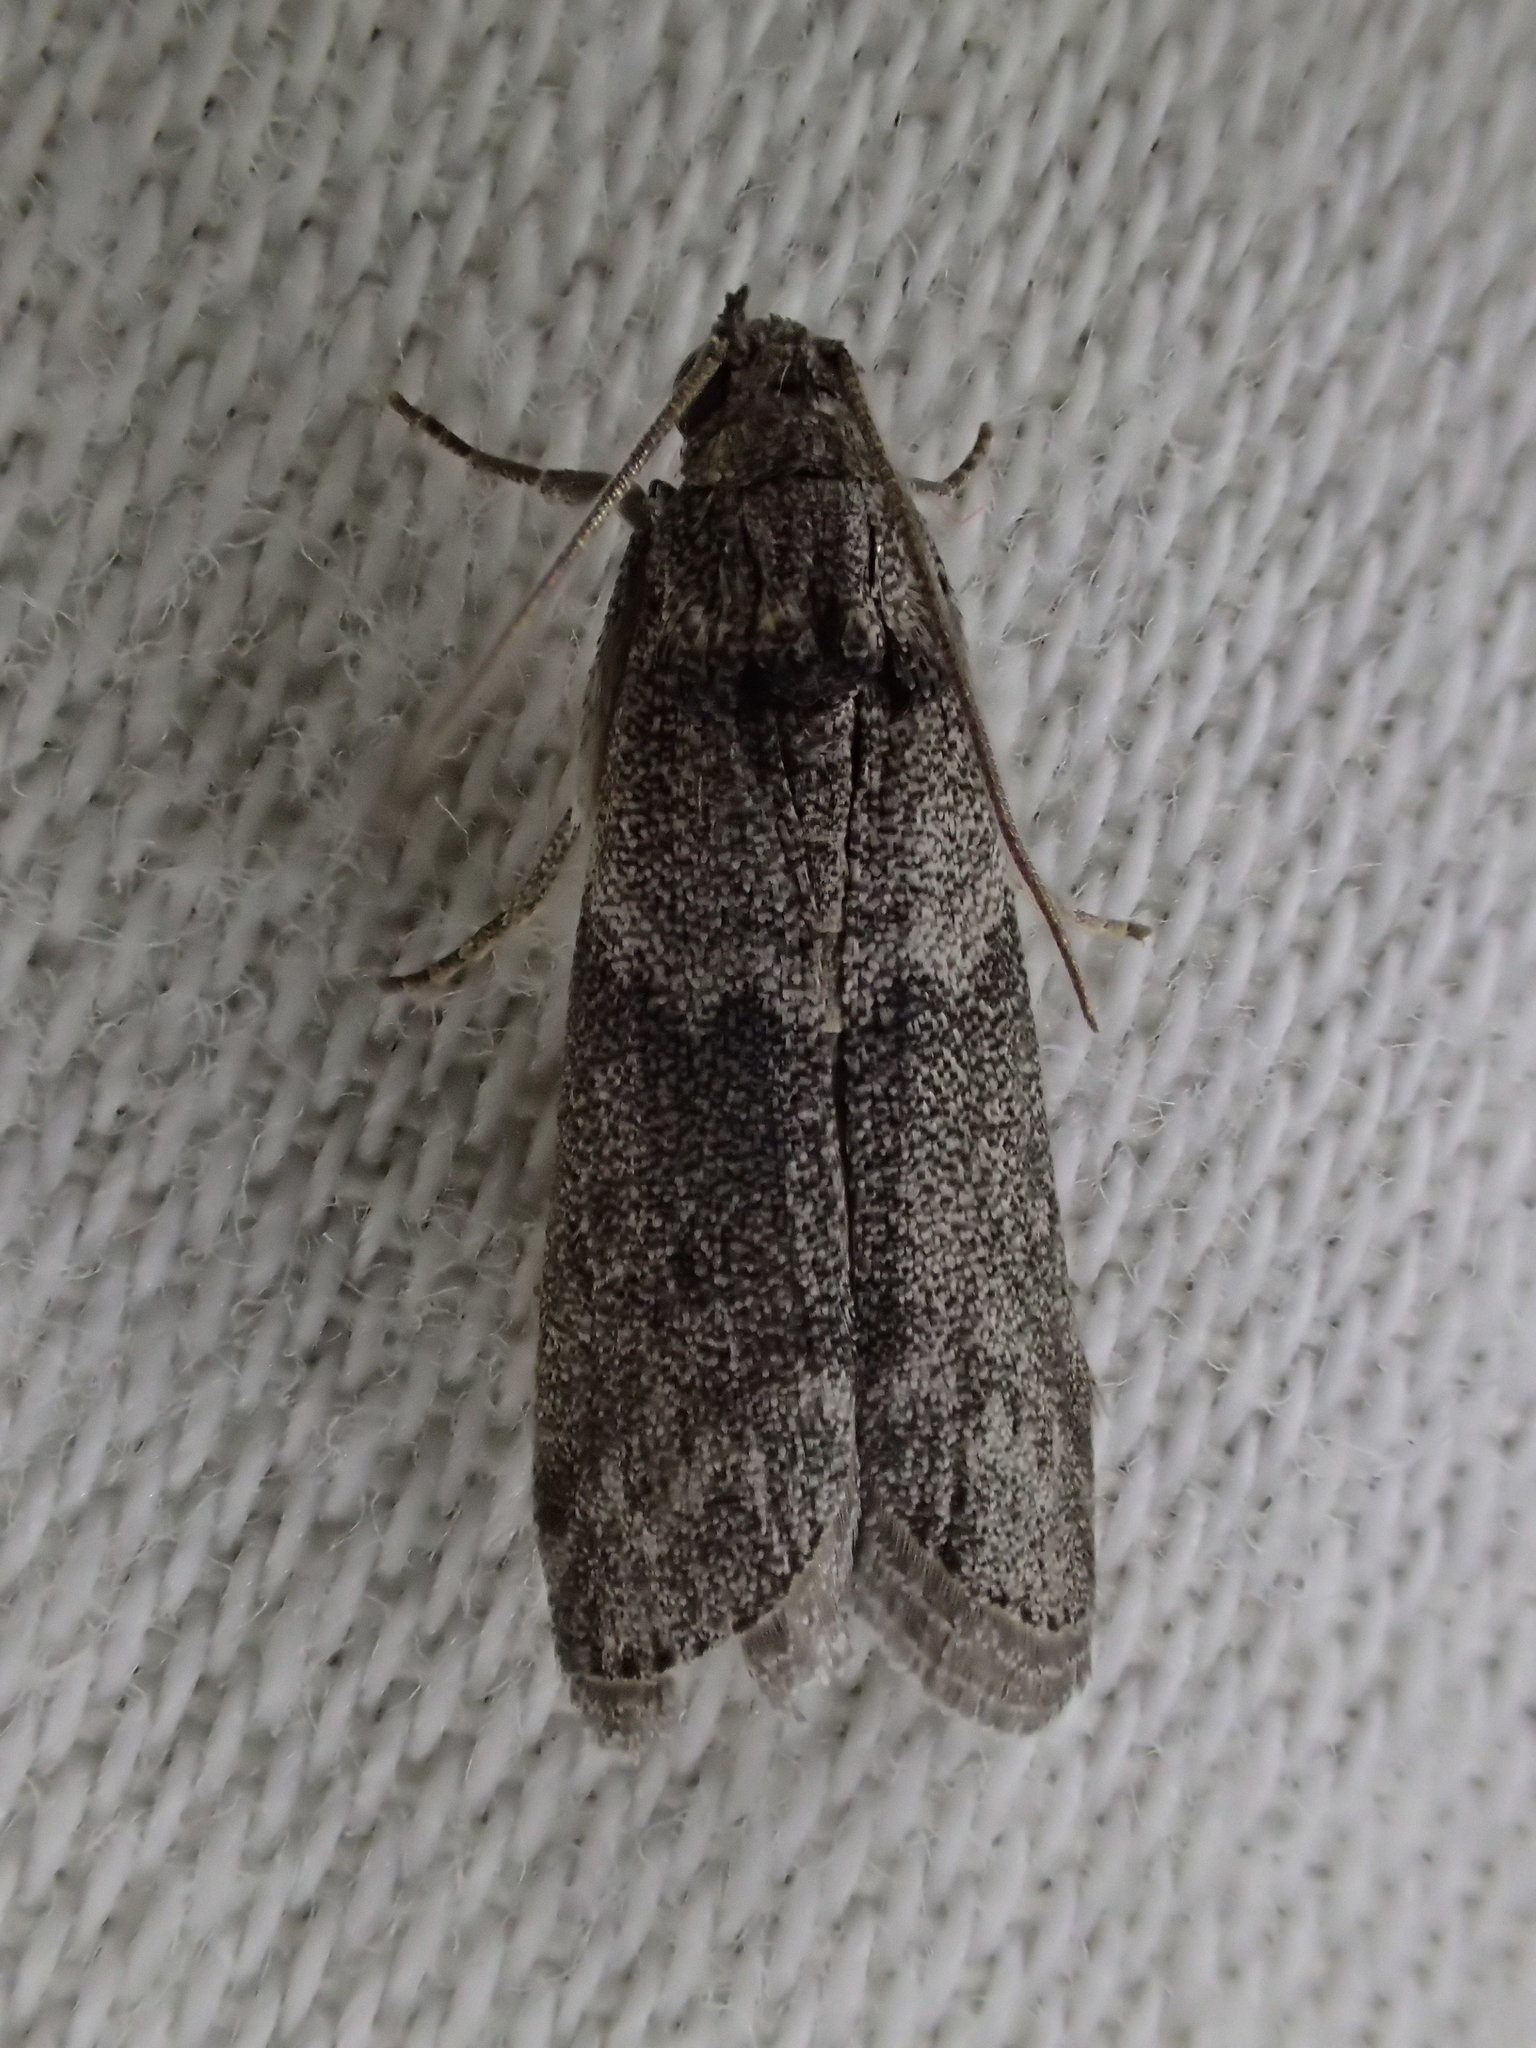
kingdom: Animalia
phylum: Arthropoda
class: Insecta
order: Lepidoptera
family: Pyralidae
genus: Ectomyelois
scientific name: Ectomyelois ceratoniae
